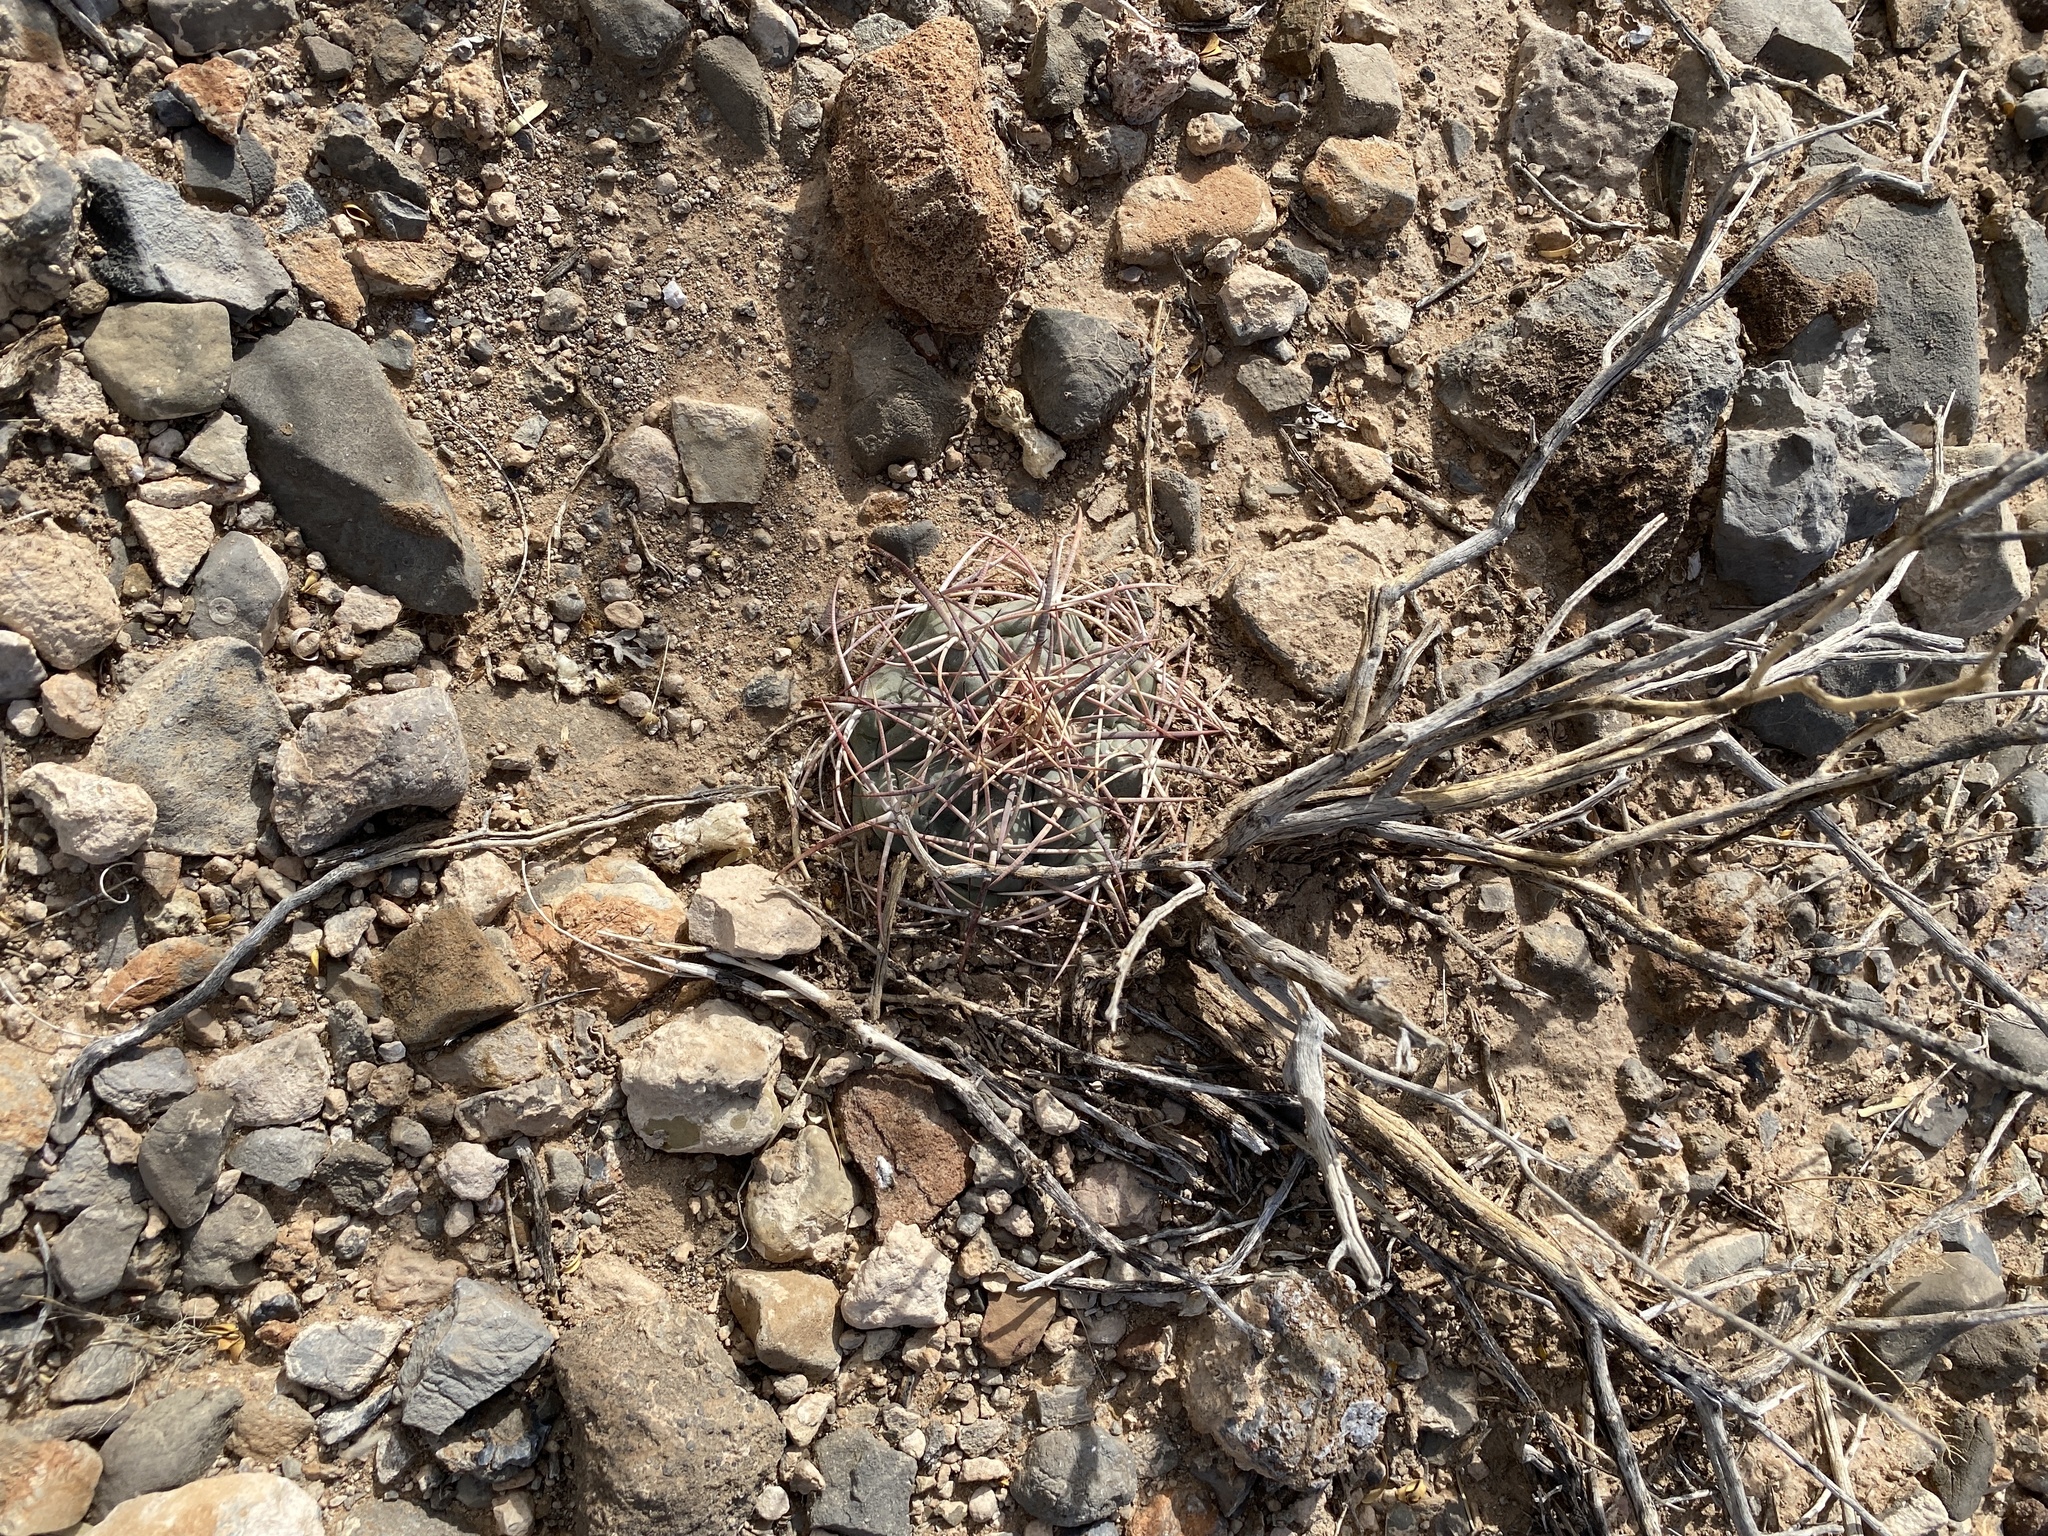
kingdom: Plantae
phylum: Tracheophyta
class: Magnoliopsida
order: Caryophyllales
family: Cactaceae
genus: Echinocactus
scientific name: Echinocactus horizonthalonius
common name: Devilshead
